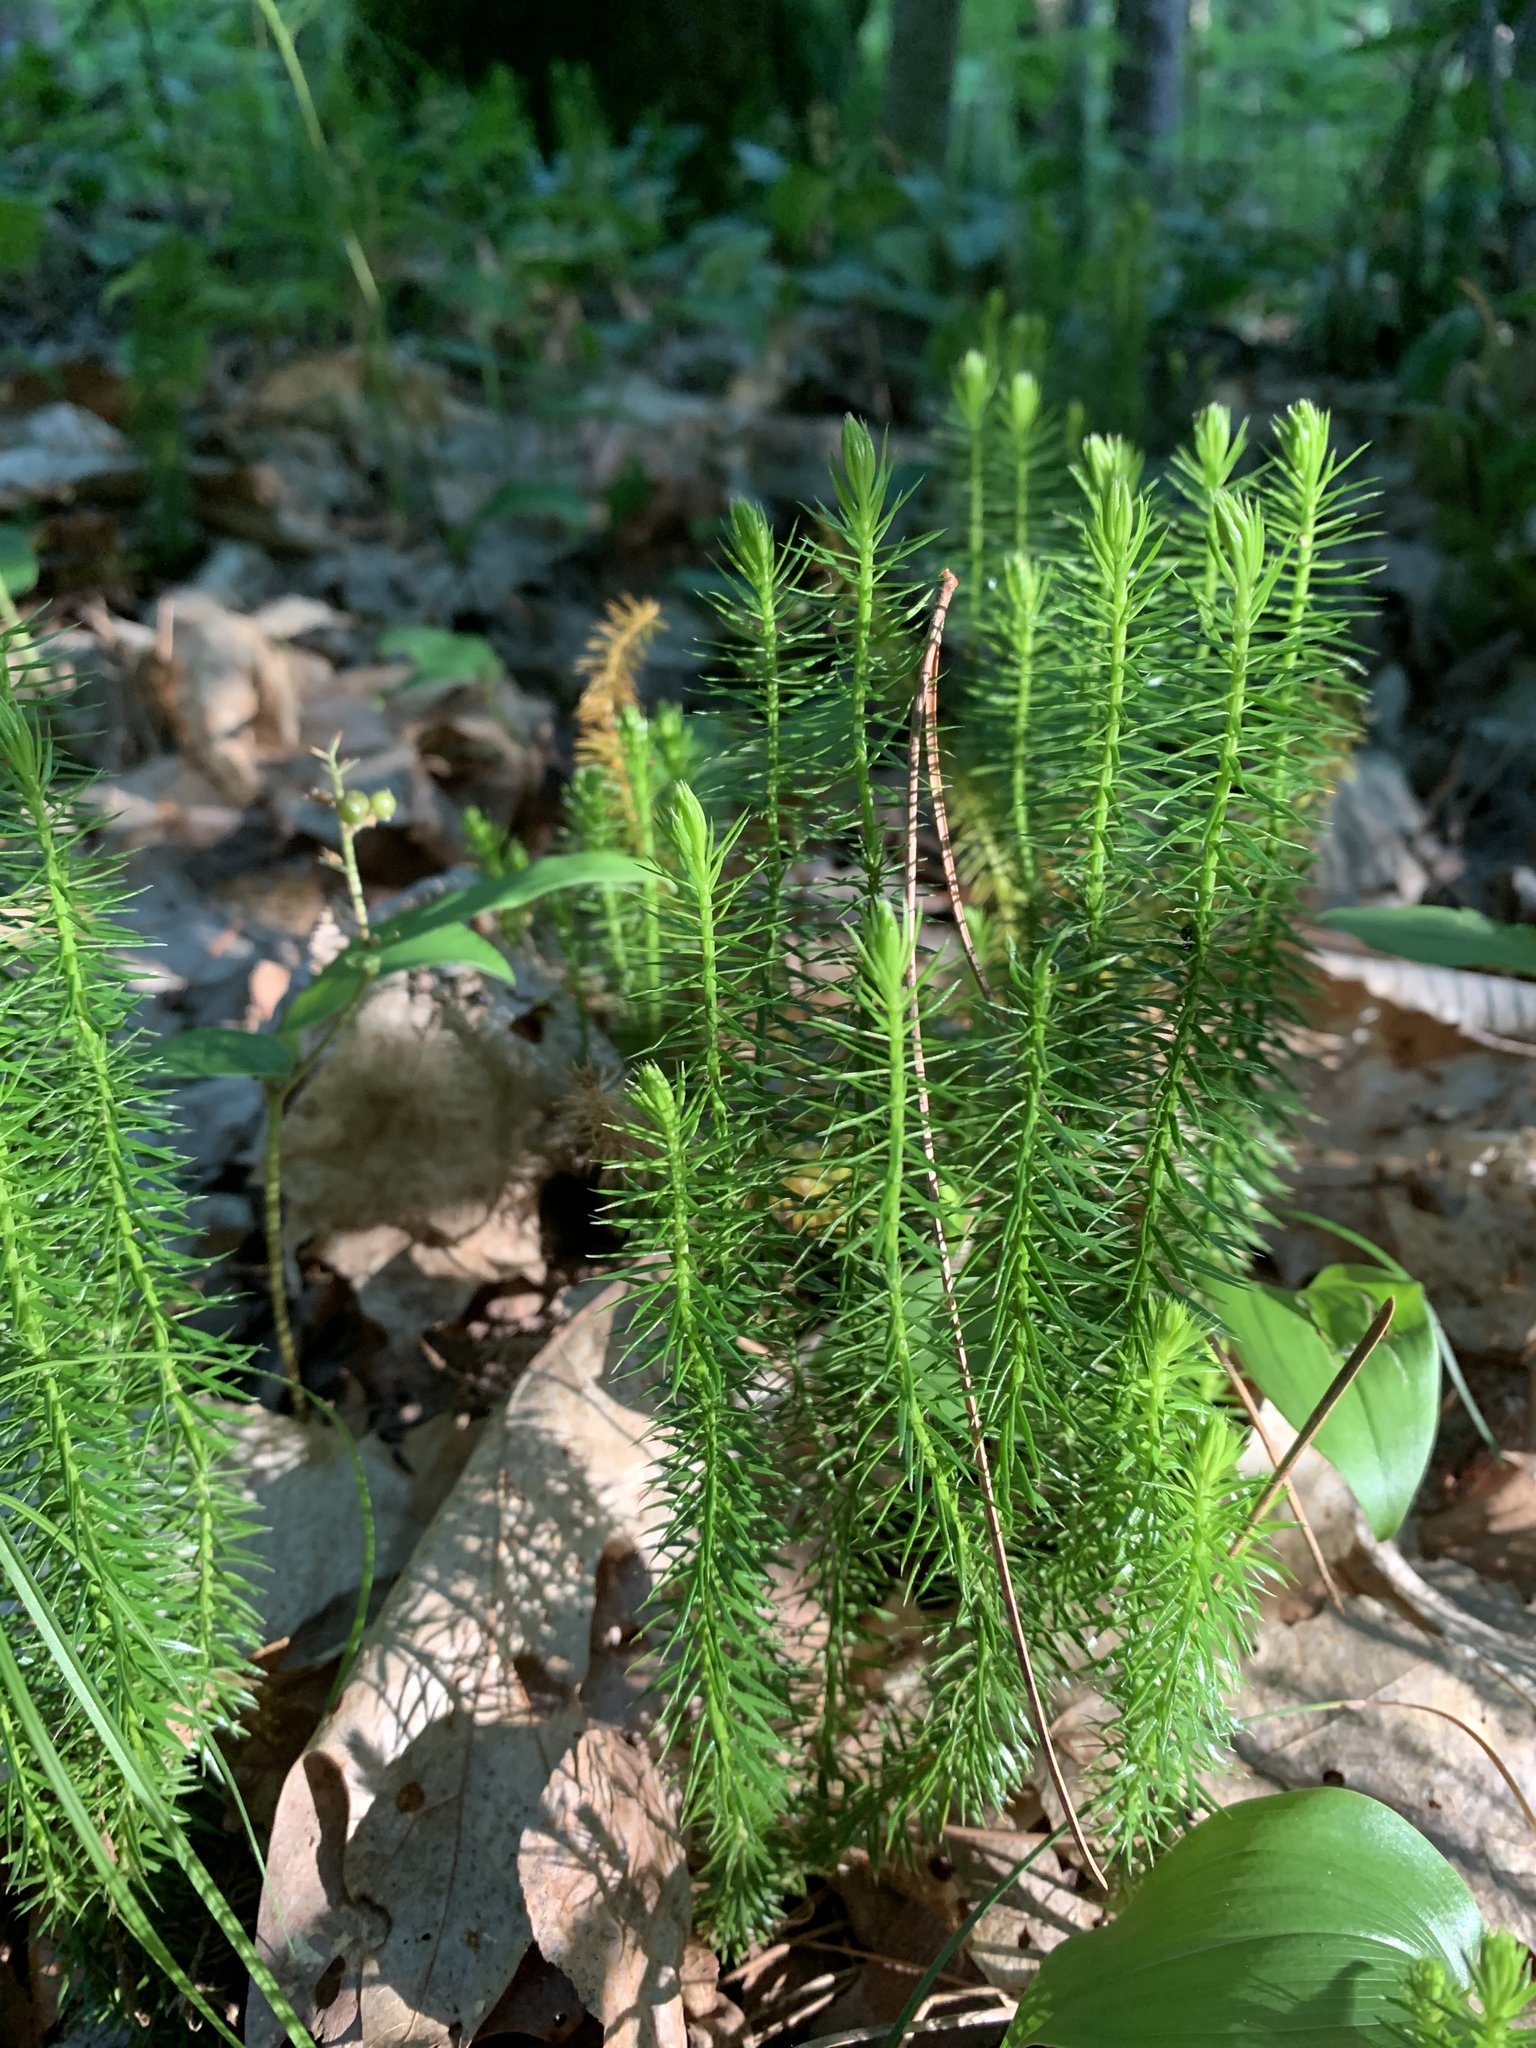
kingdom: Plantae
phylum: Tracheophyta
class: Lycopodiopsida
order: Lycopodiales
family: Lycopodiaceae
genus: Spinulum
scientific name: Spinulum annotinum
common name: Interrupted club-moss
